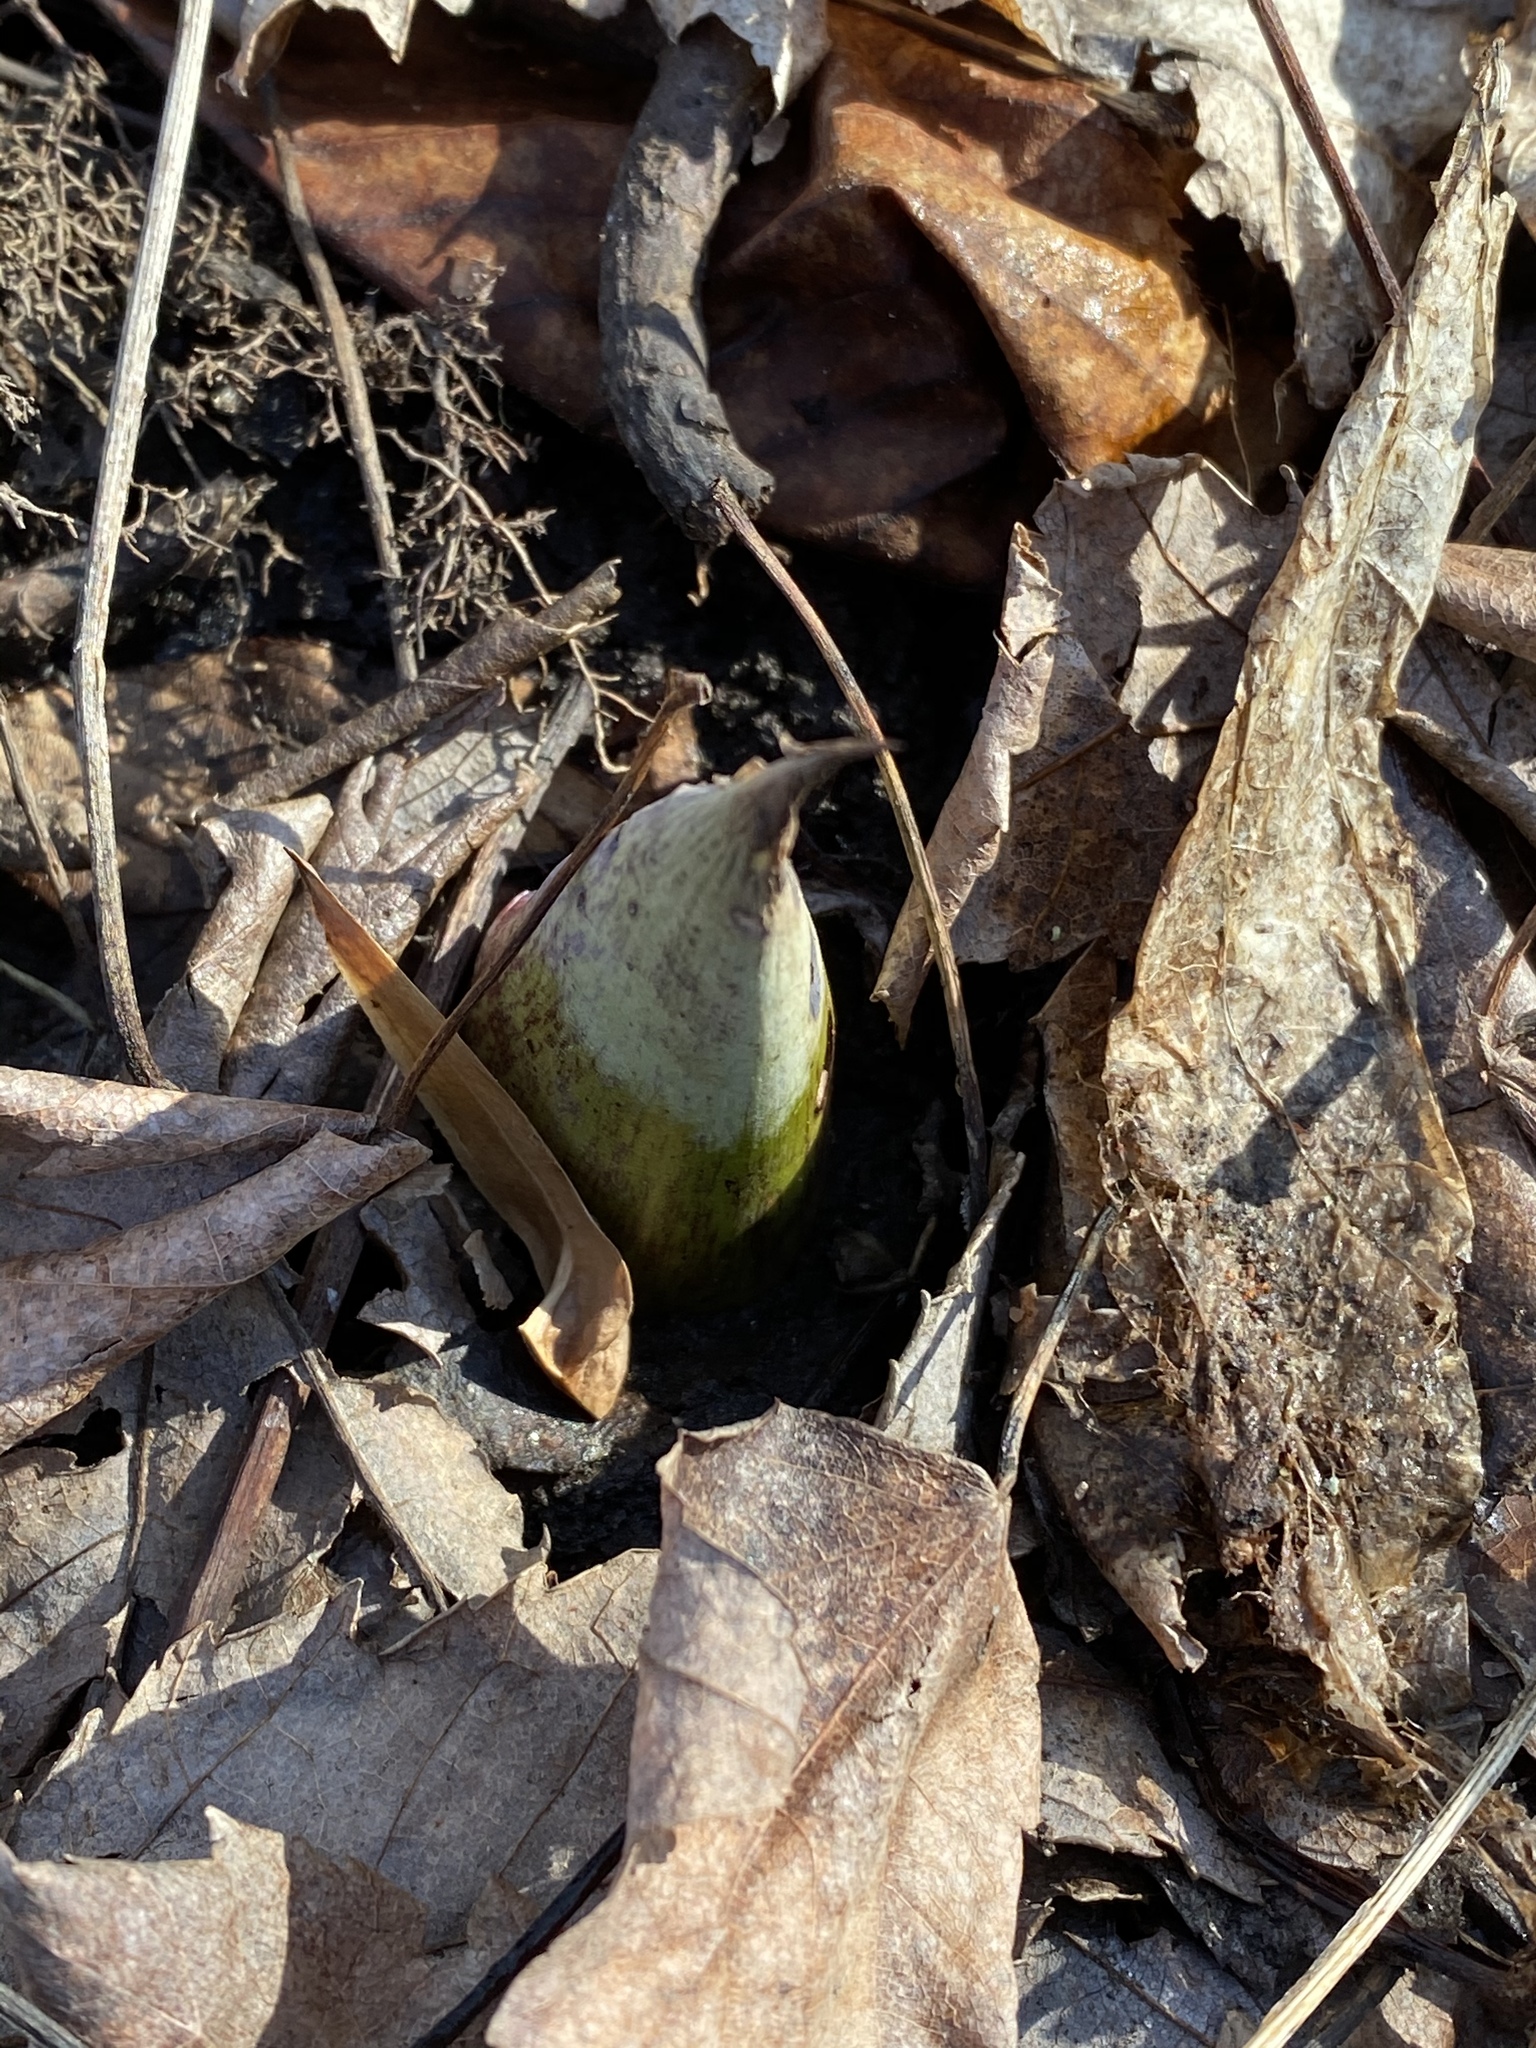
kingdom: Plantae
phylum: Tracheophyta
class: Liliopsida
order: Alismatales
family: Araceae
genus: Symplocarpus
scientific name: Symplocarpus foetidus
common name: Eastern skunk cabbage
